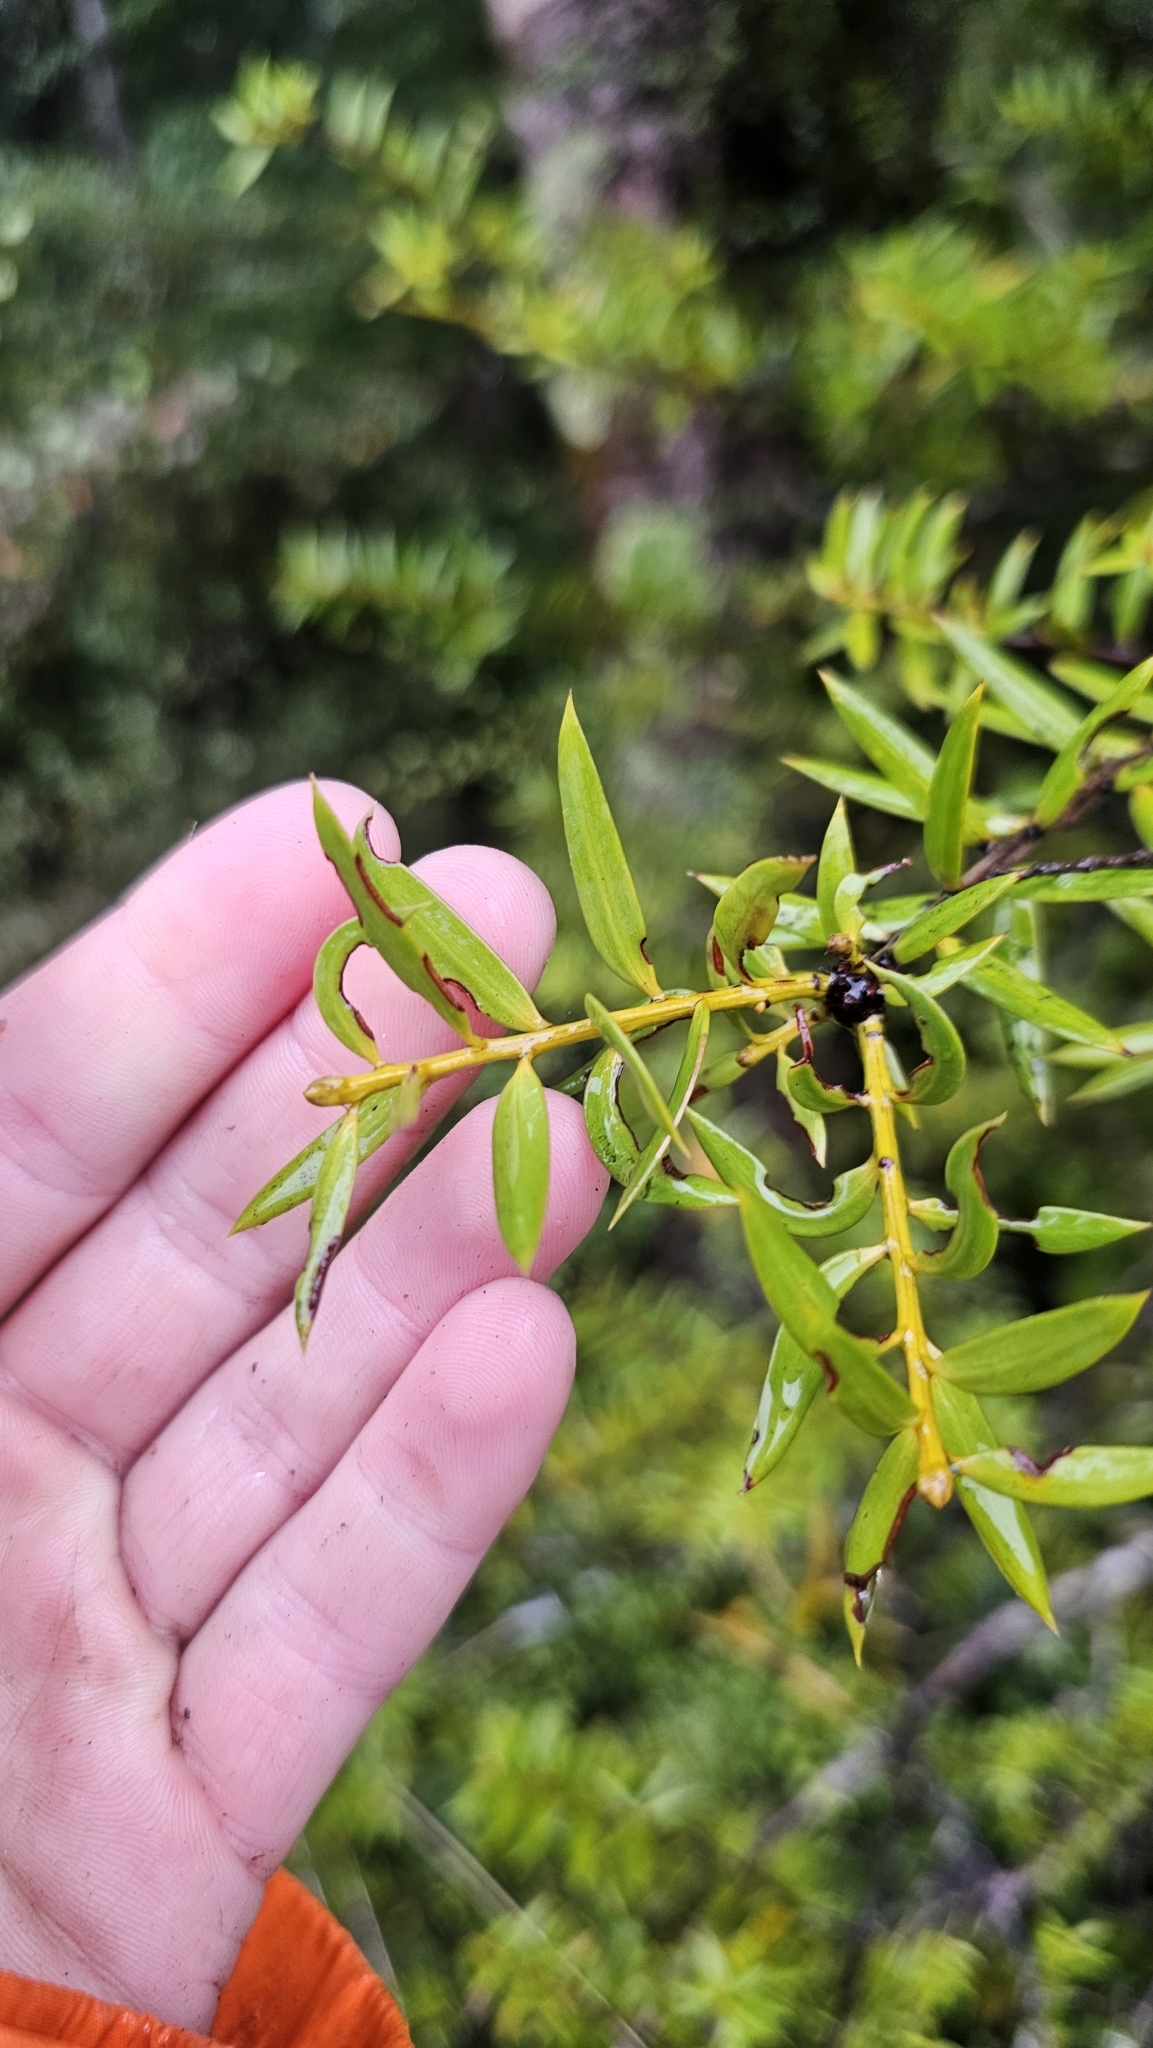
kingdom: Plantae
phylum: Tracheophyta
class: Pinopsida
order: Pinales
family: Podocarpaceae
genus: Podocarpus
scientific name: Podocarpus laetus
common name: Hall's totara
